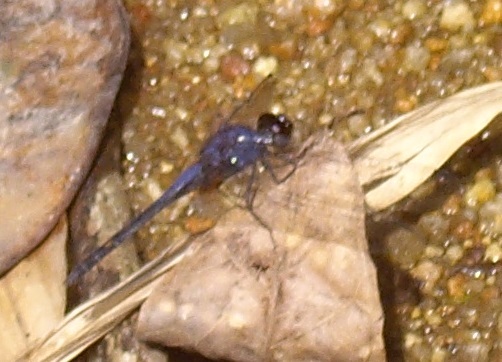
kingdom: Animalia
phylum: Arthropoda
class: Insecta
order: Odonata
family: Libellulidae
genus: Trithemis
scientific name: Trithemis festiva
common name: Indigo dropwing
